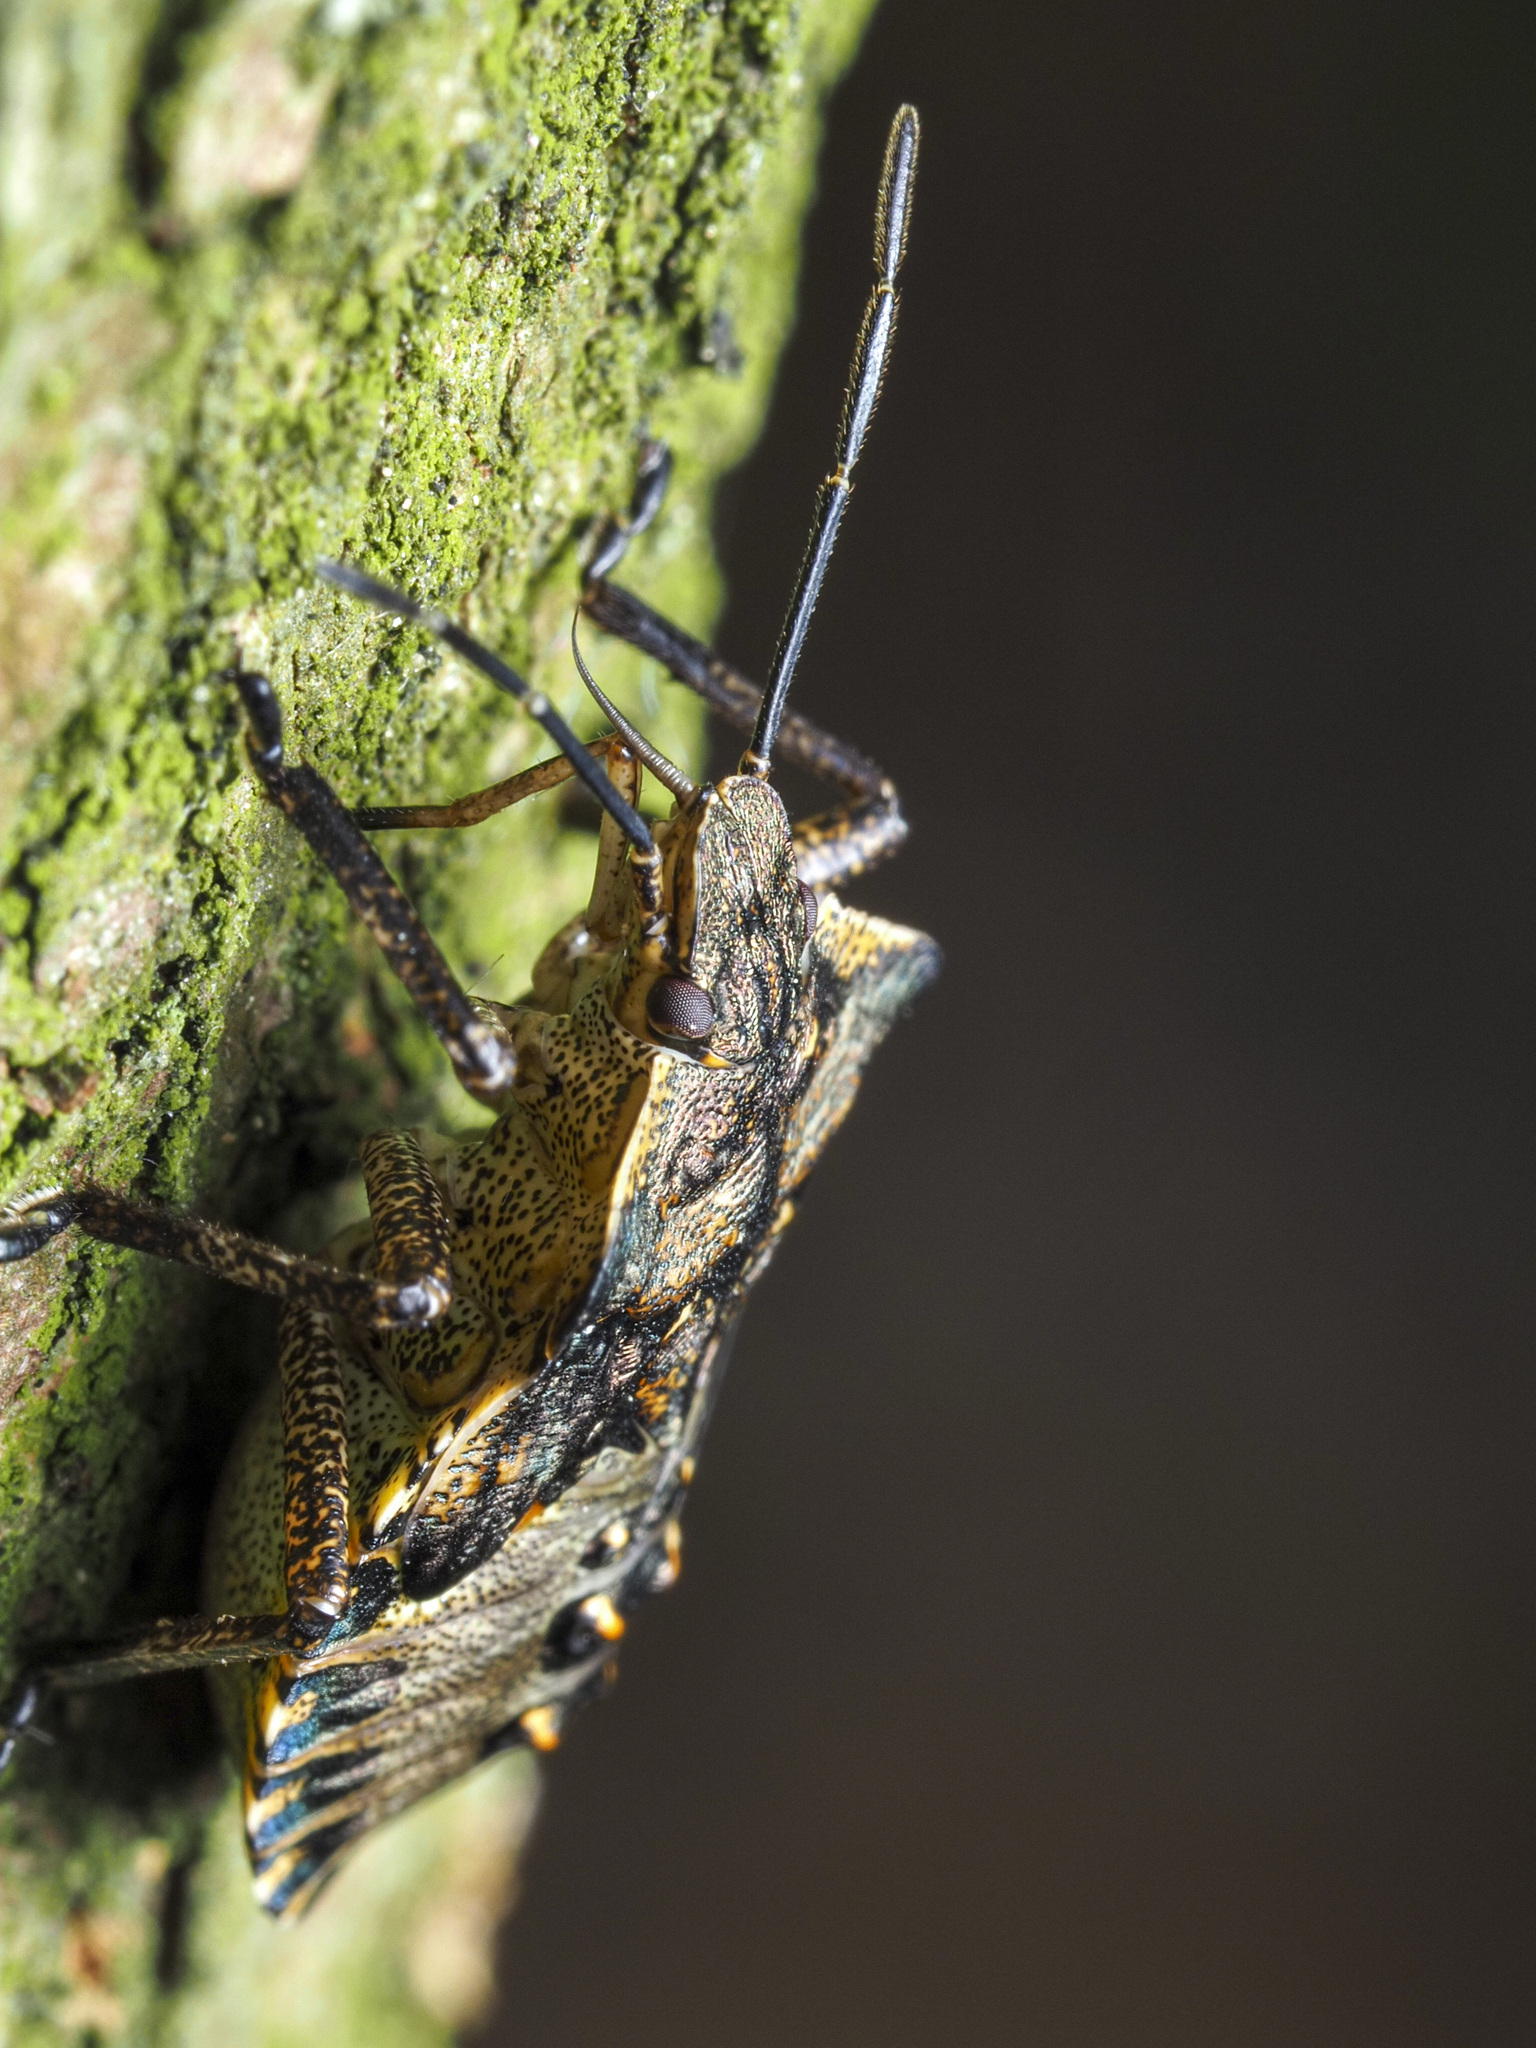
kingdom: Animalia
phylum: Arthropoda
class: Insecta
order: Hemiptera
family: Pentatomidae
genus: Pentatoma
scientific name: Pentatoma rufipes
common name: Forest bug
